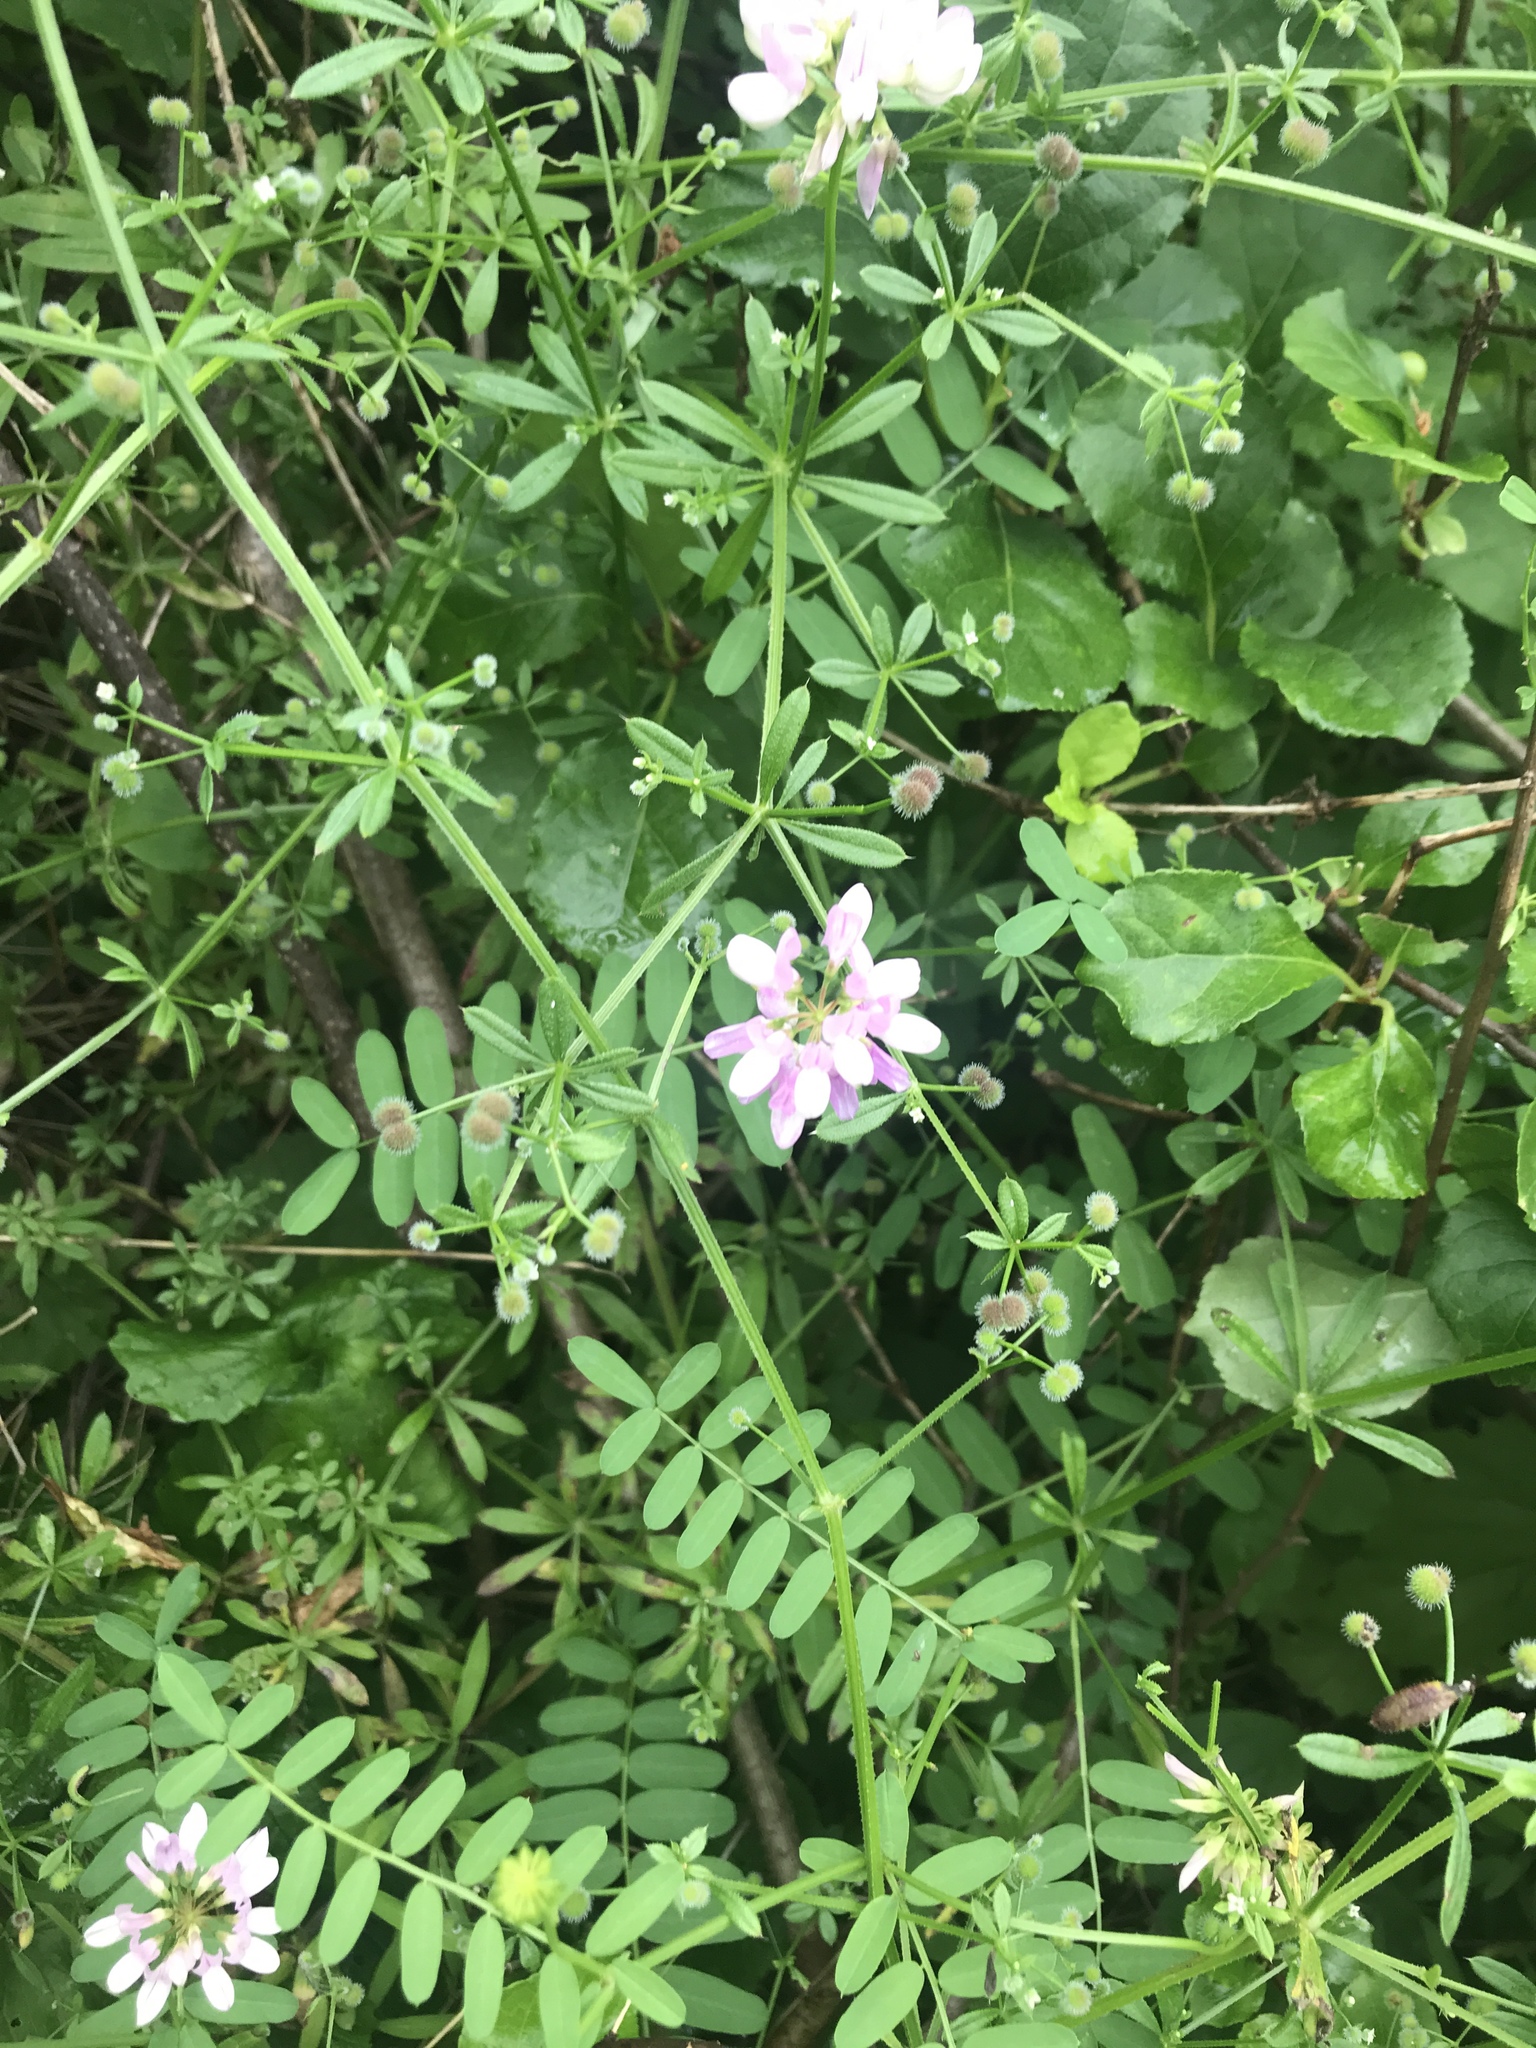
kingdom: Plantae
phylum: Tracheophyta
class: Magnoliopsida
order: Fabales
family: Fabaceae
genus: Coronilla
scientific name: Coronilla varia
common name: Crownvetch
